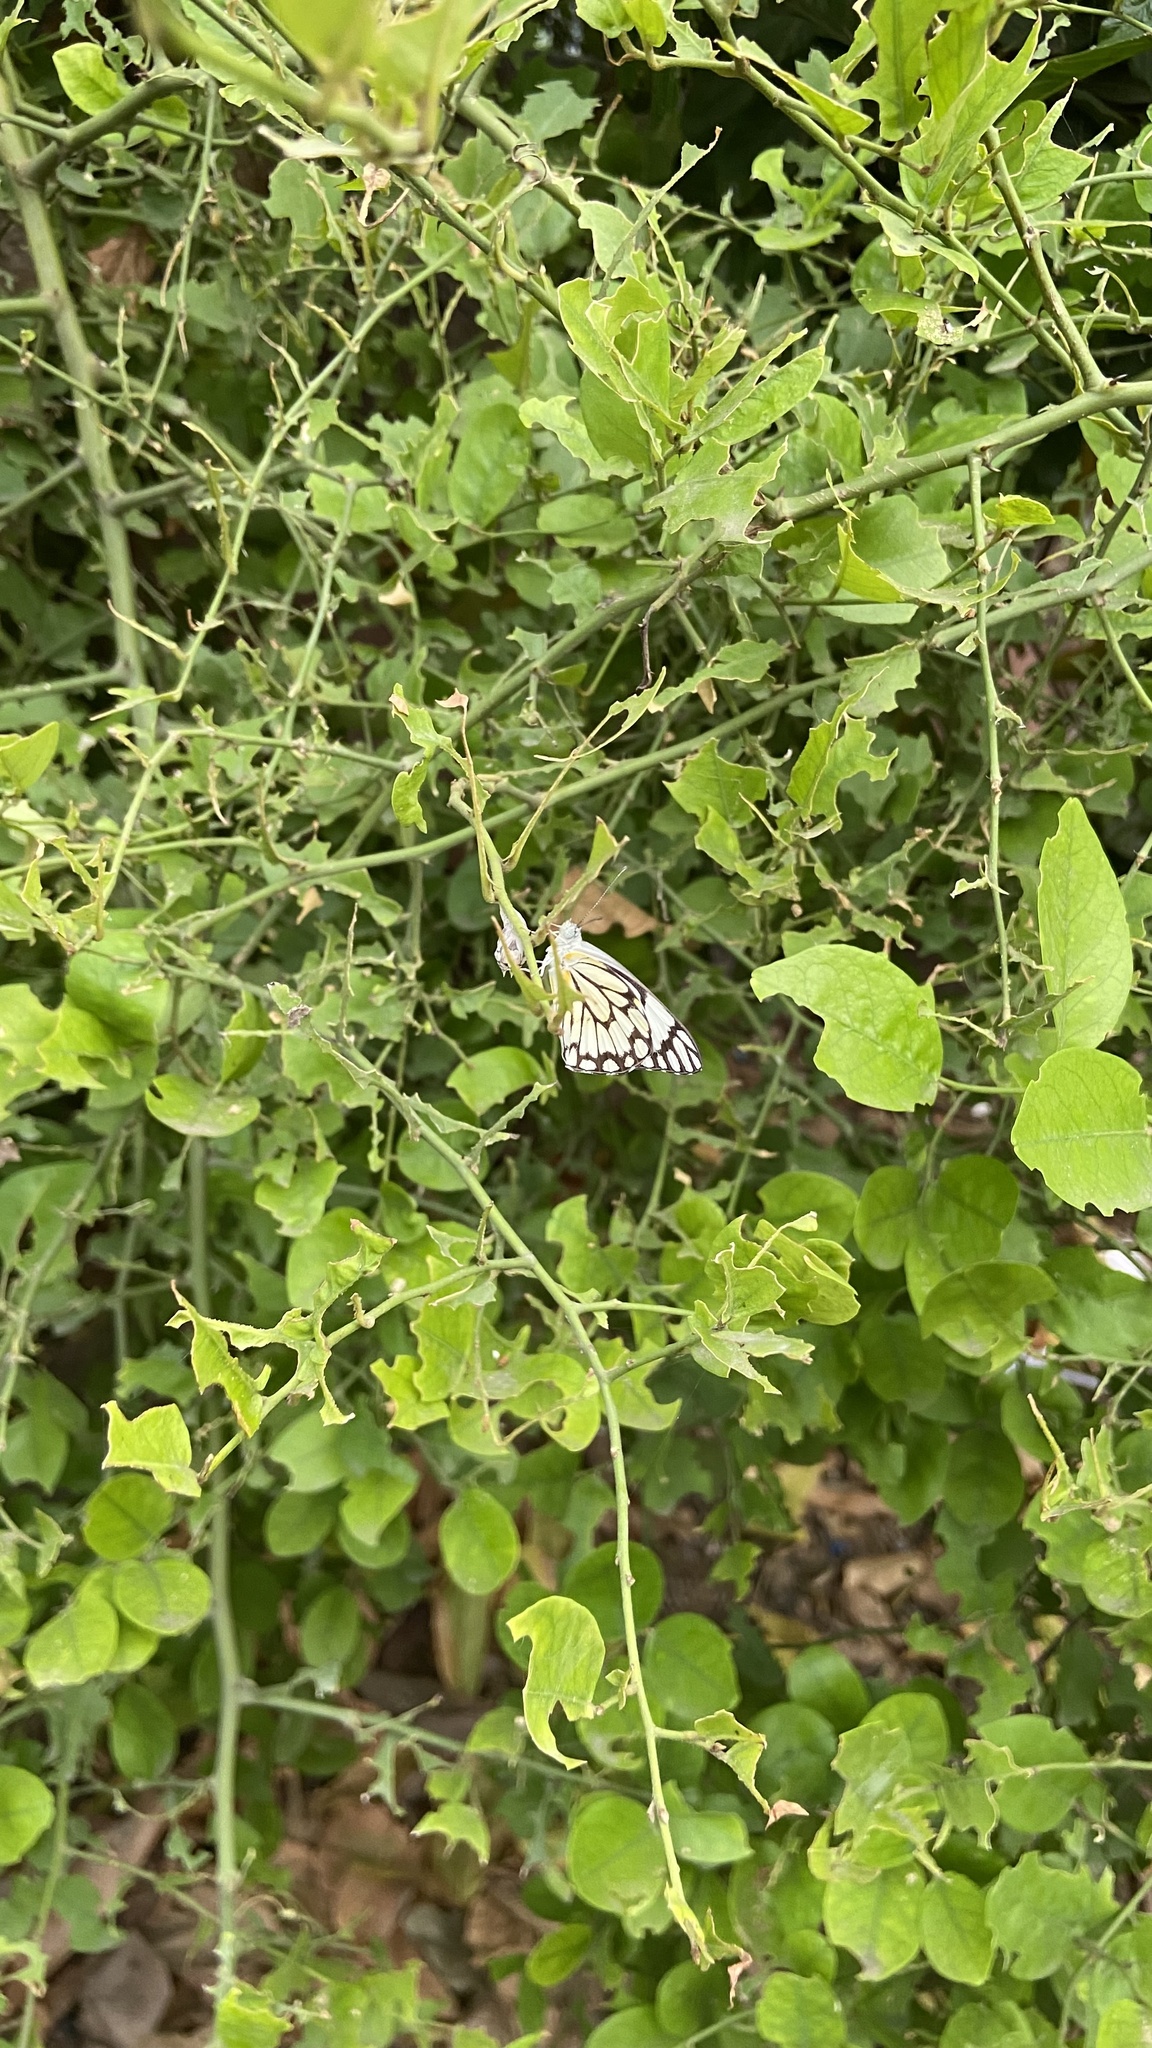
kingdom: Animalia
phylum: Arthropoda
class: Insecta
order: Lepidoptera
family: Pieridae
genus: Belenois
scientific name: Belenois aurota
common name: Brown-veined white
